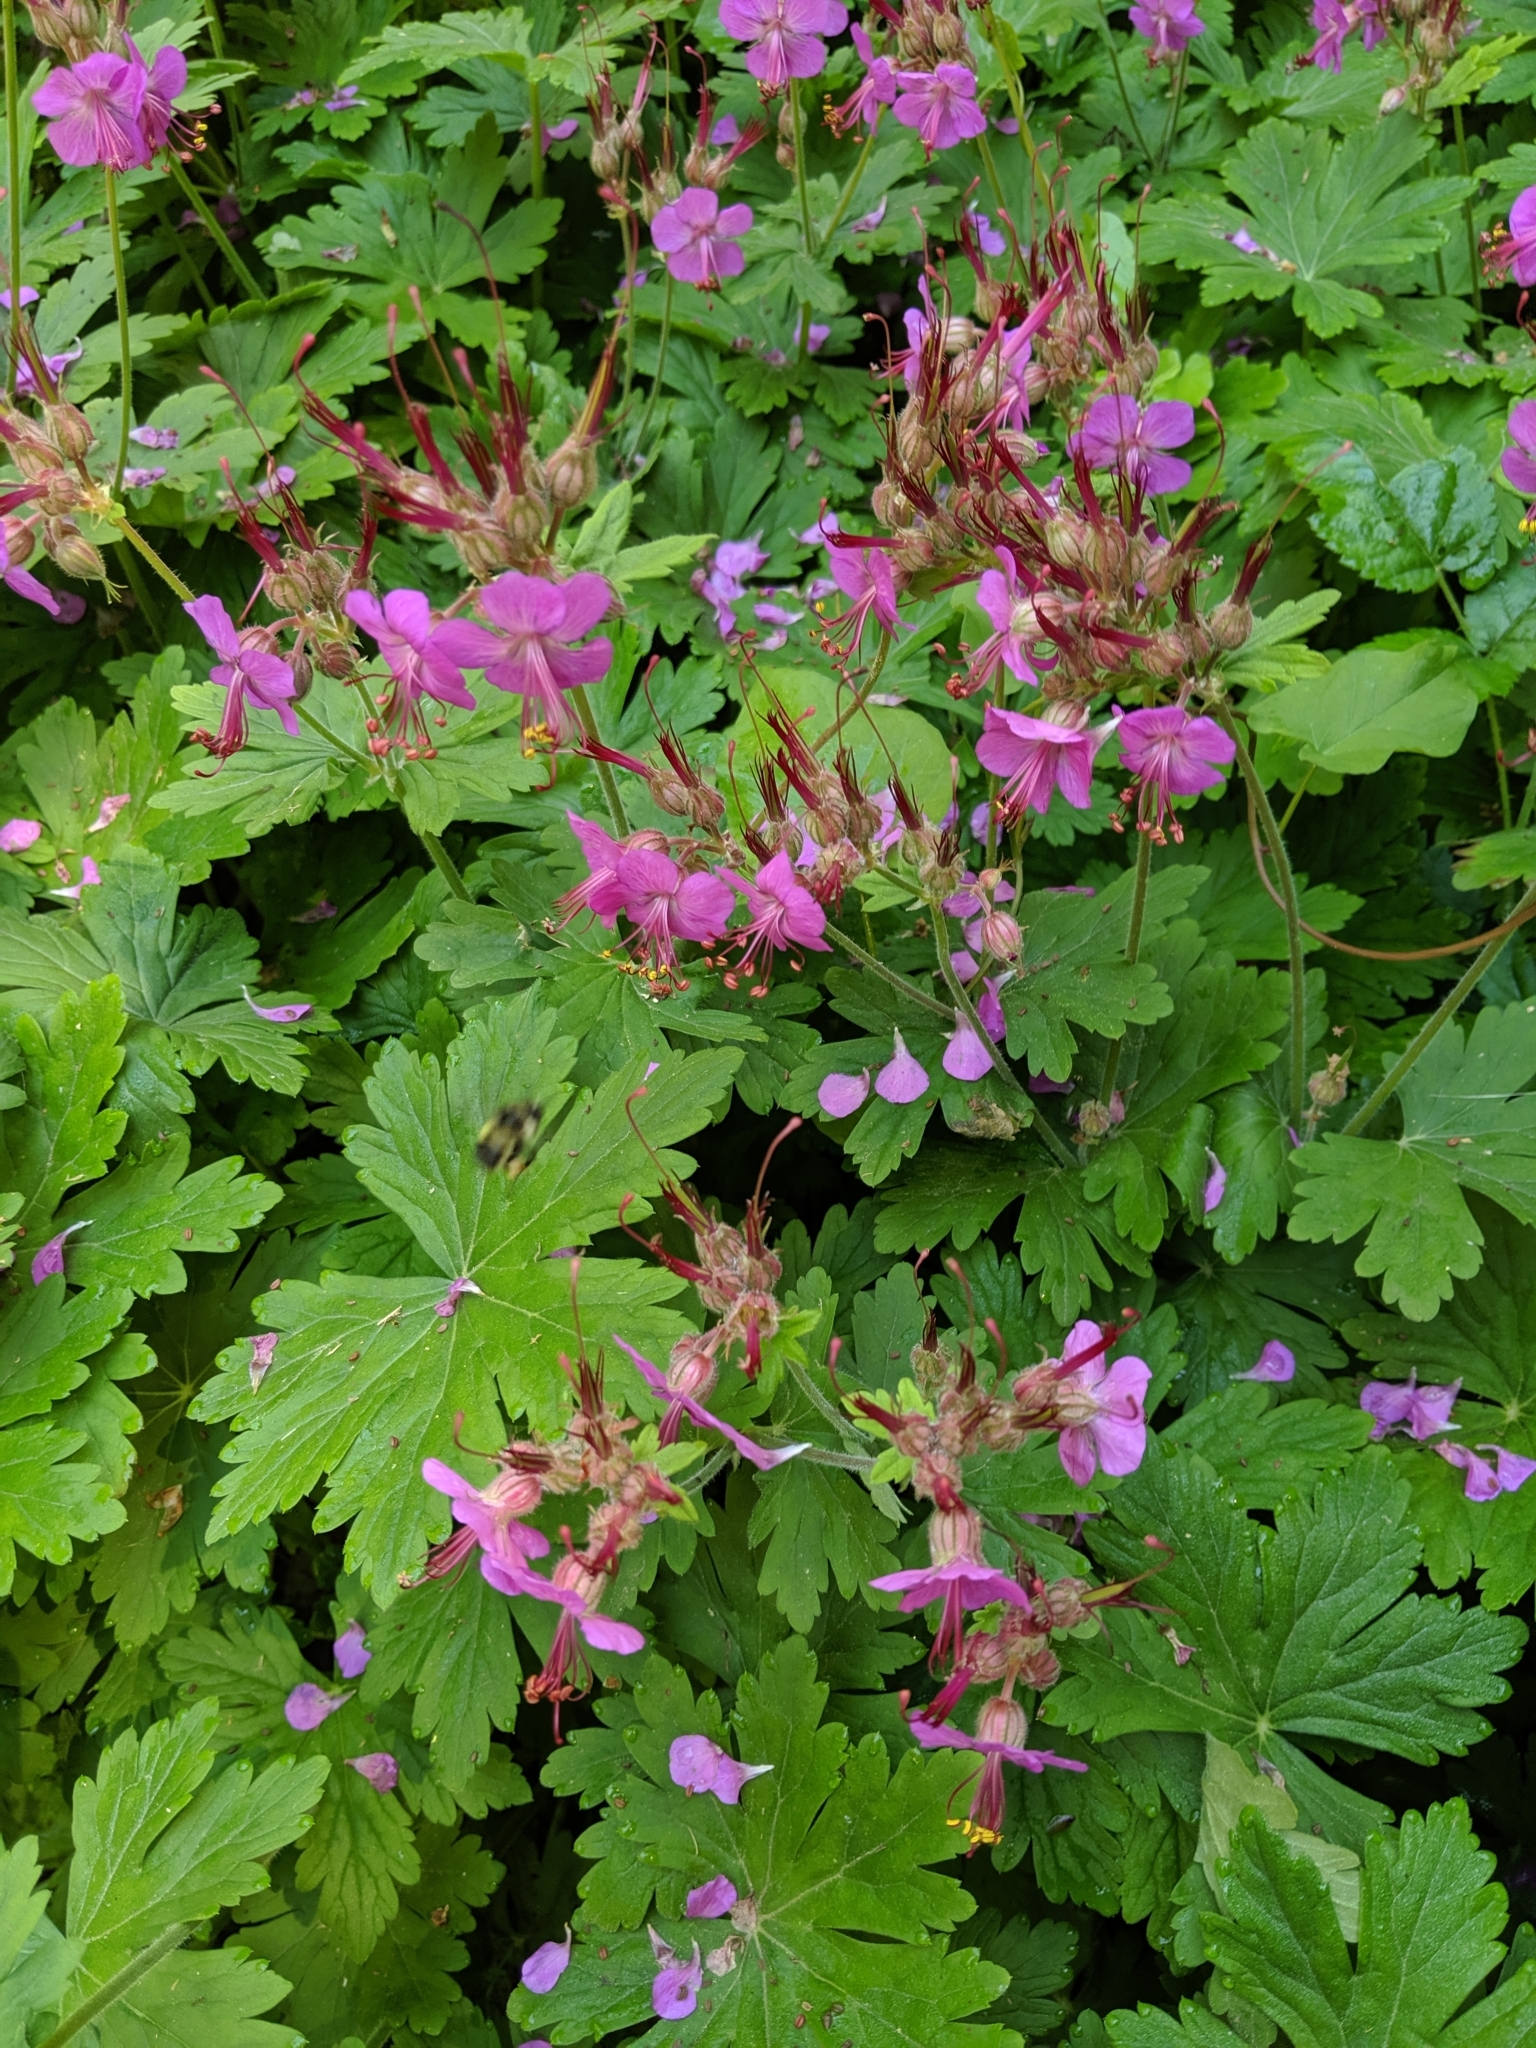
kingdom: Plantae
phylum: Tracheophyta
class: Magnoliopsida
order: Geraniales
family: Geraniaceae
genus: Geranium
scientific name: Geranium macrorrhizum
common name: Rock crane's-bill
